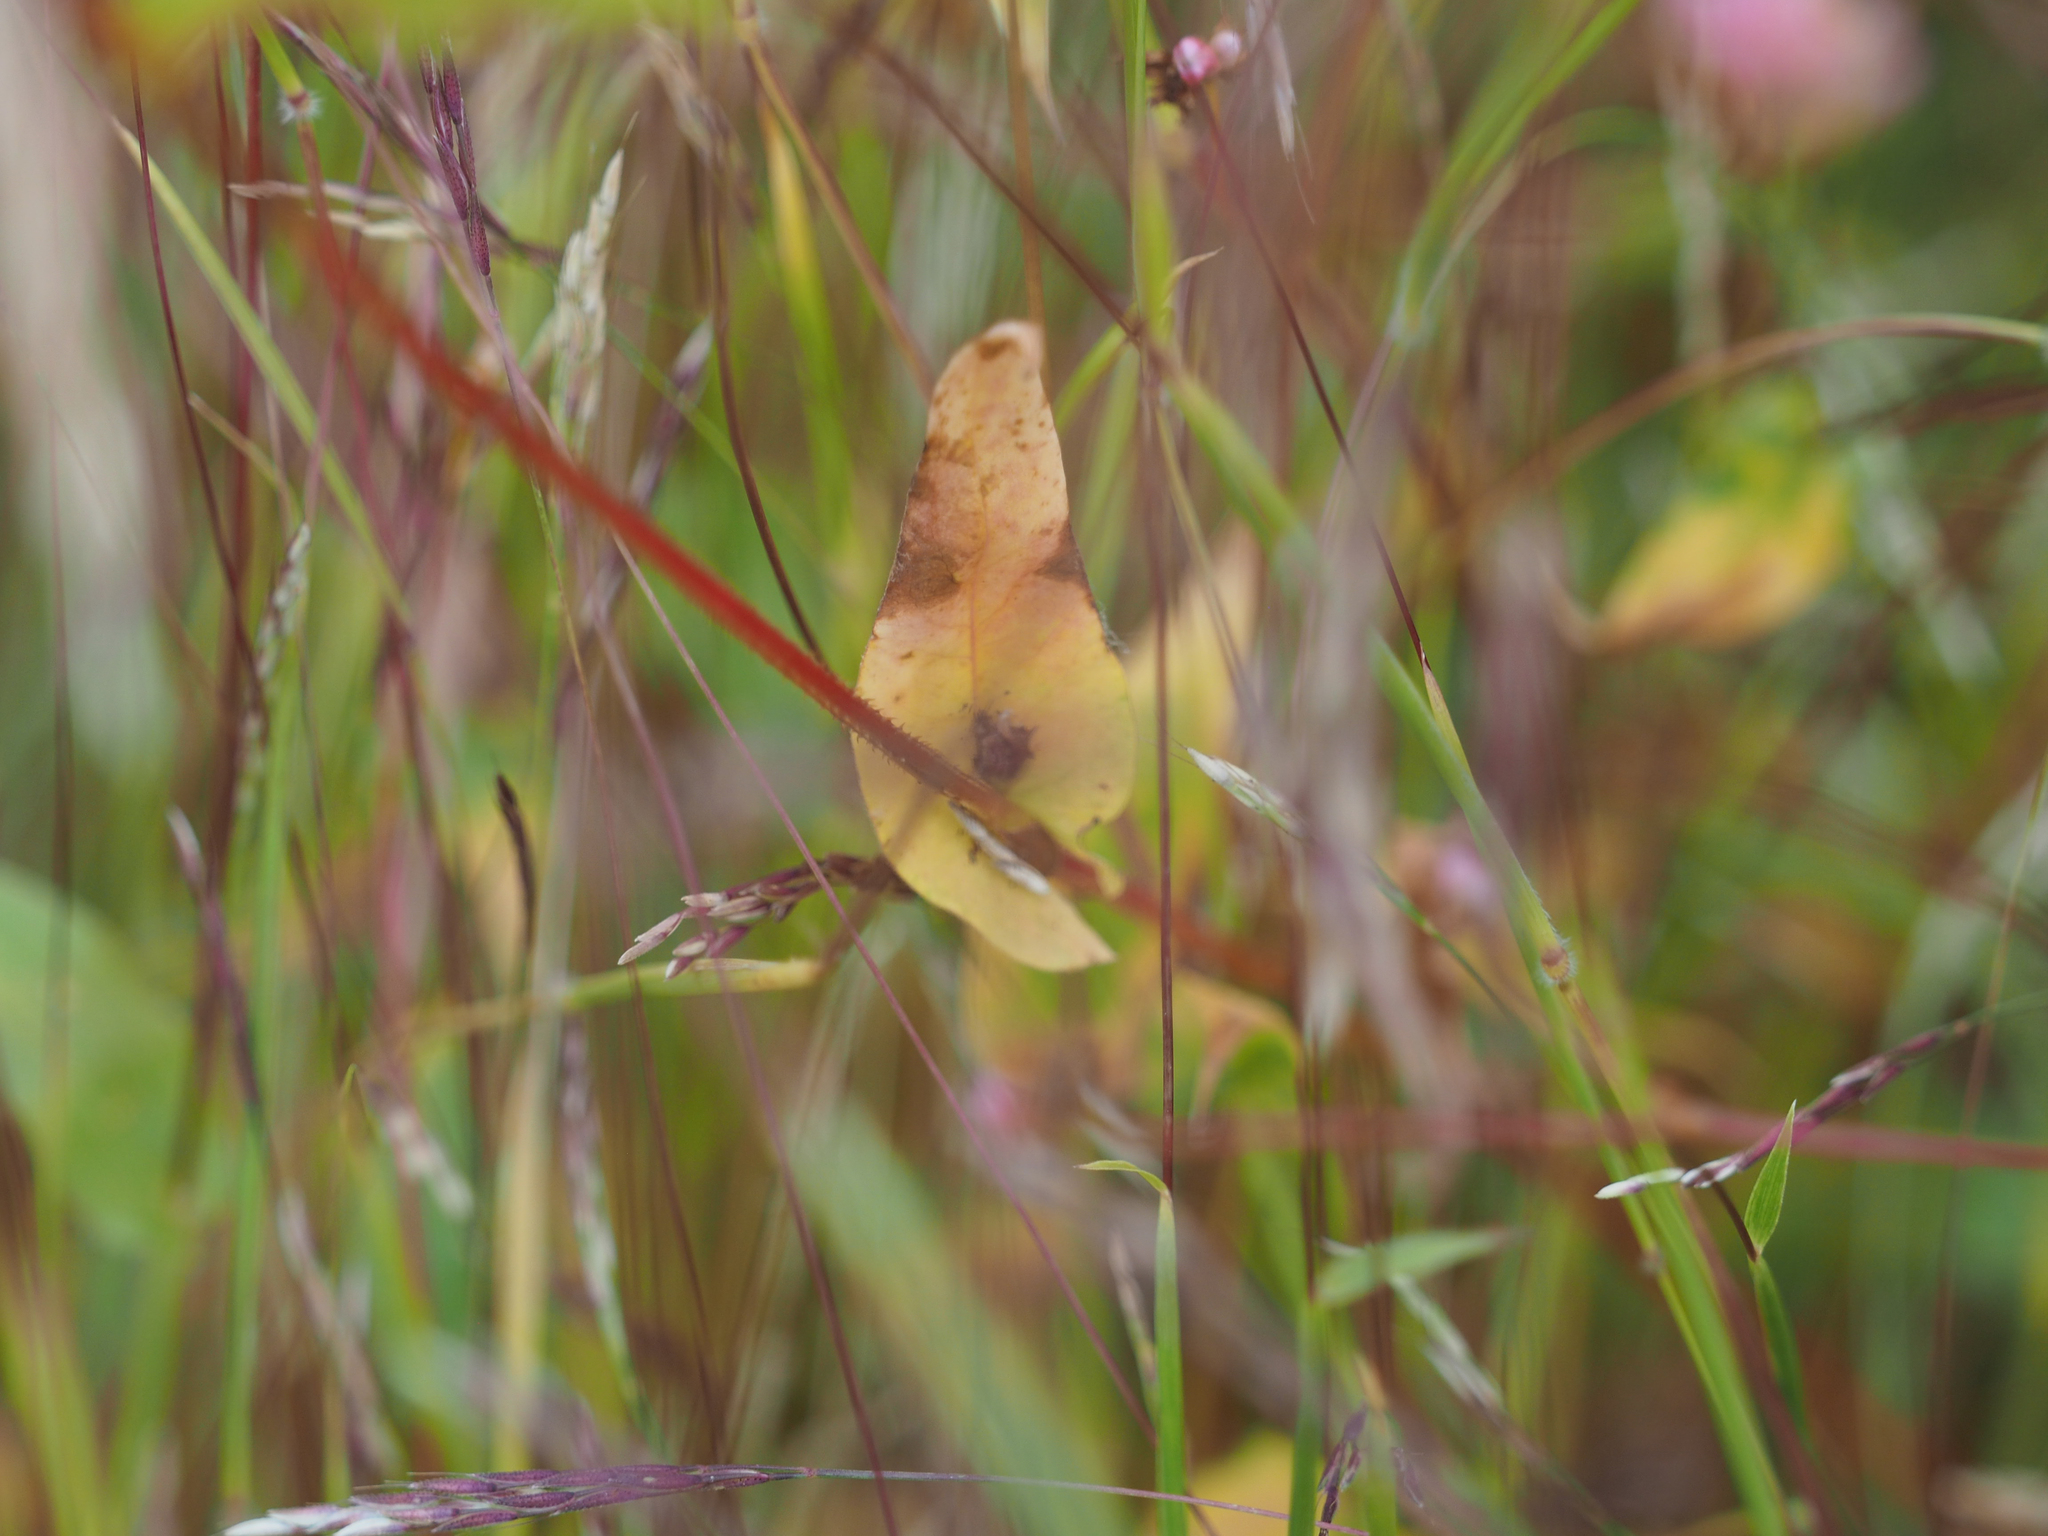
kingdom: Plantae
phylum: Tracheophyta
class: Magnoliopsida
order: Caryophyllales
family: Polygonaceae
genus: Persicaria
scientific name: Persicaria sagittata
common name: American tearthumb
